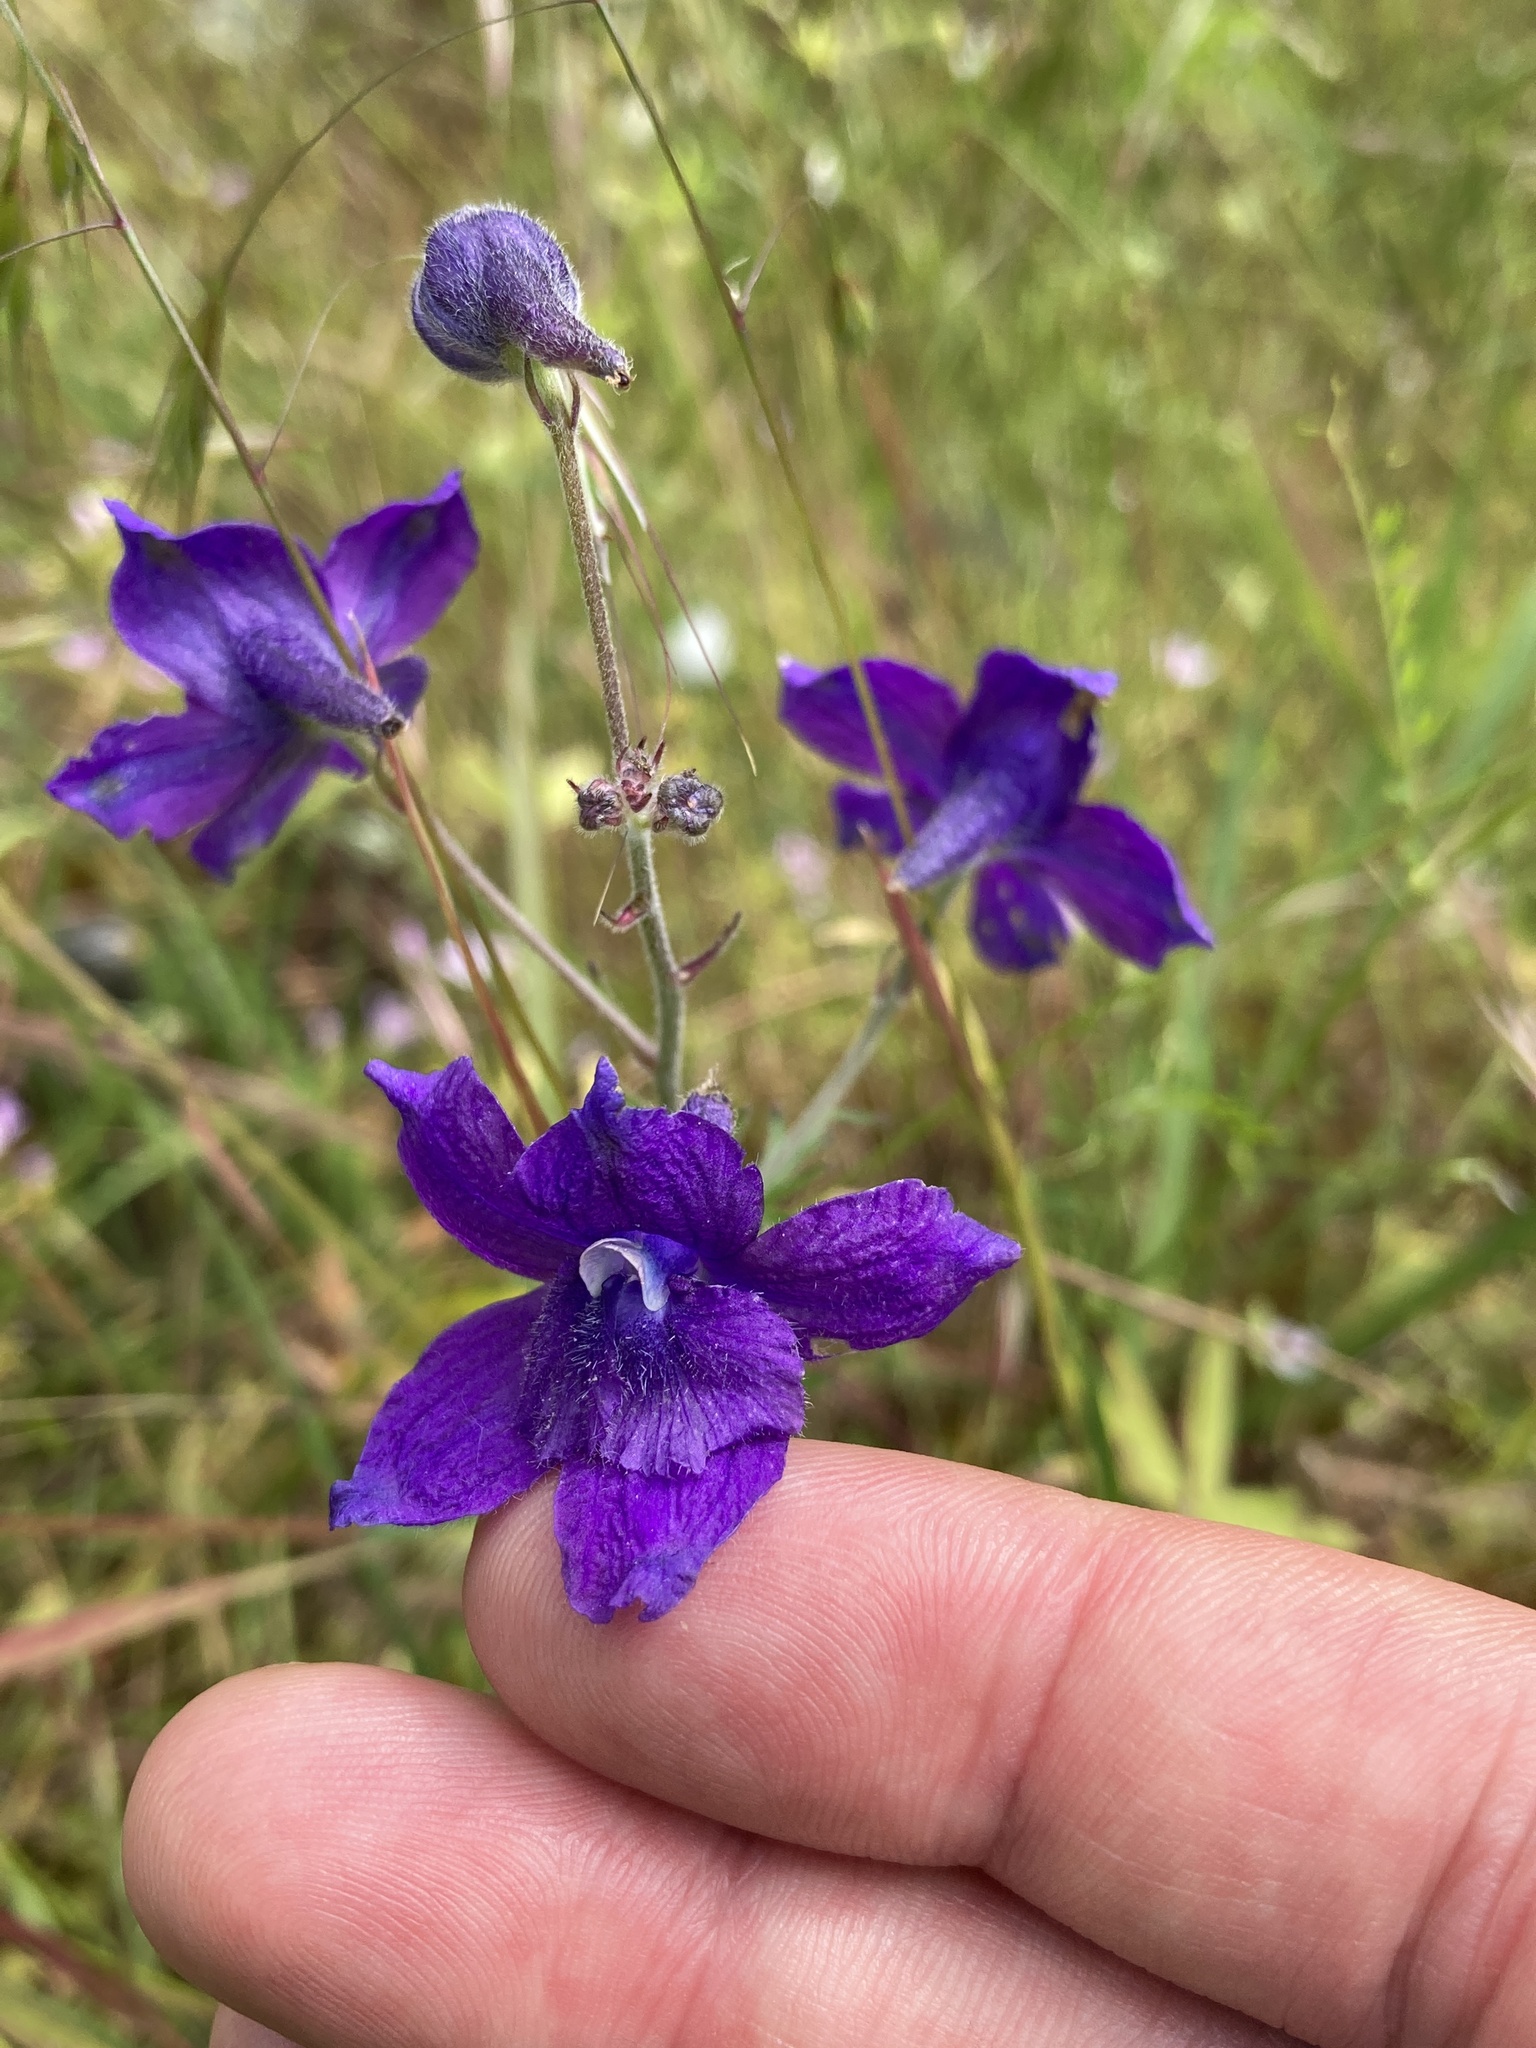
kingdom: Plantae
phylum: Tracheophyta
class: Magnoliopsida
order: Ranunculales
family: Ranunculaceae
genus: Delphinium
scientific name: Delphinium menziesii
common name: Menzies's larkspur
